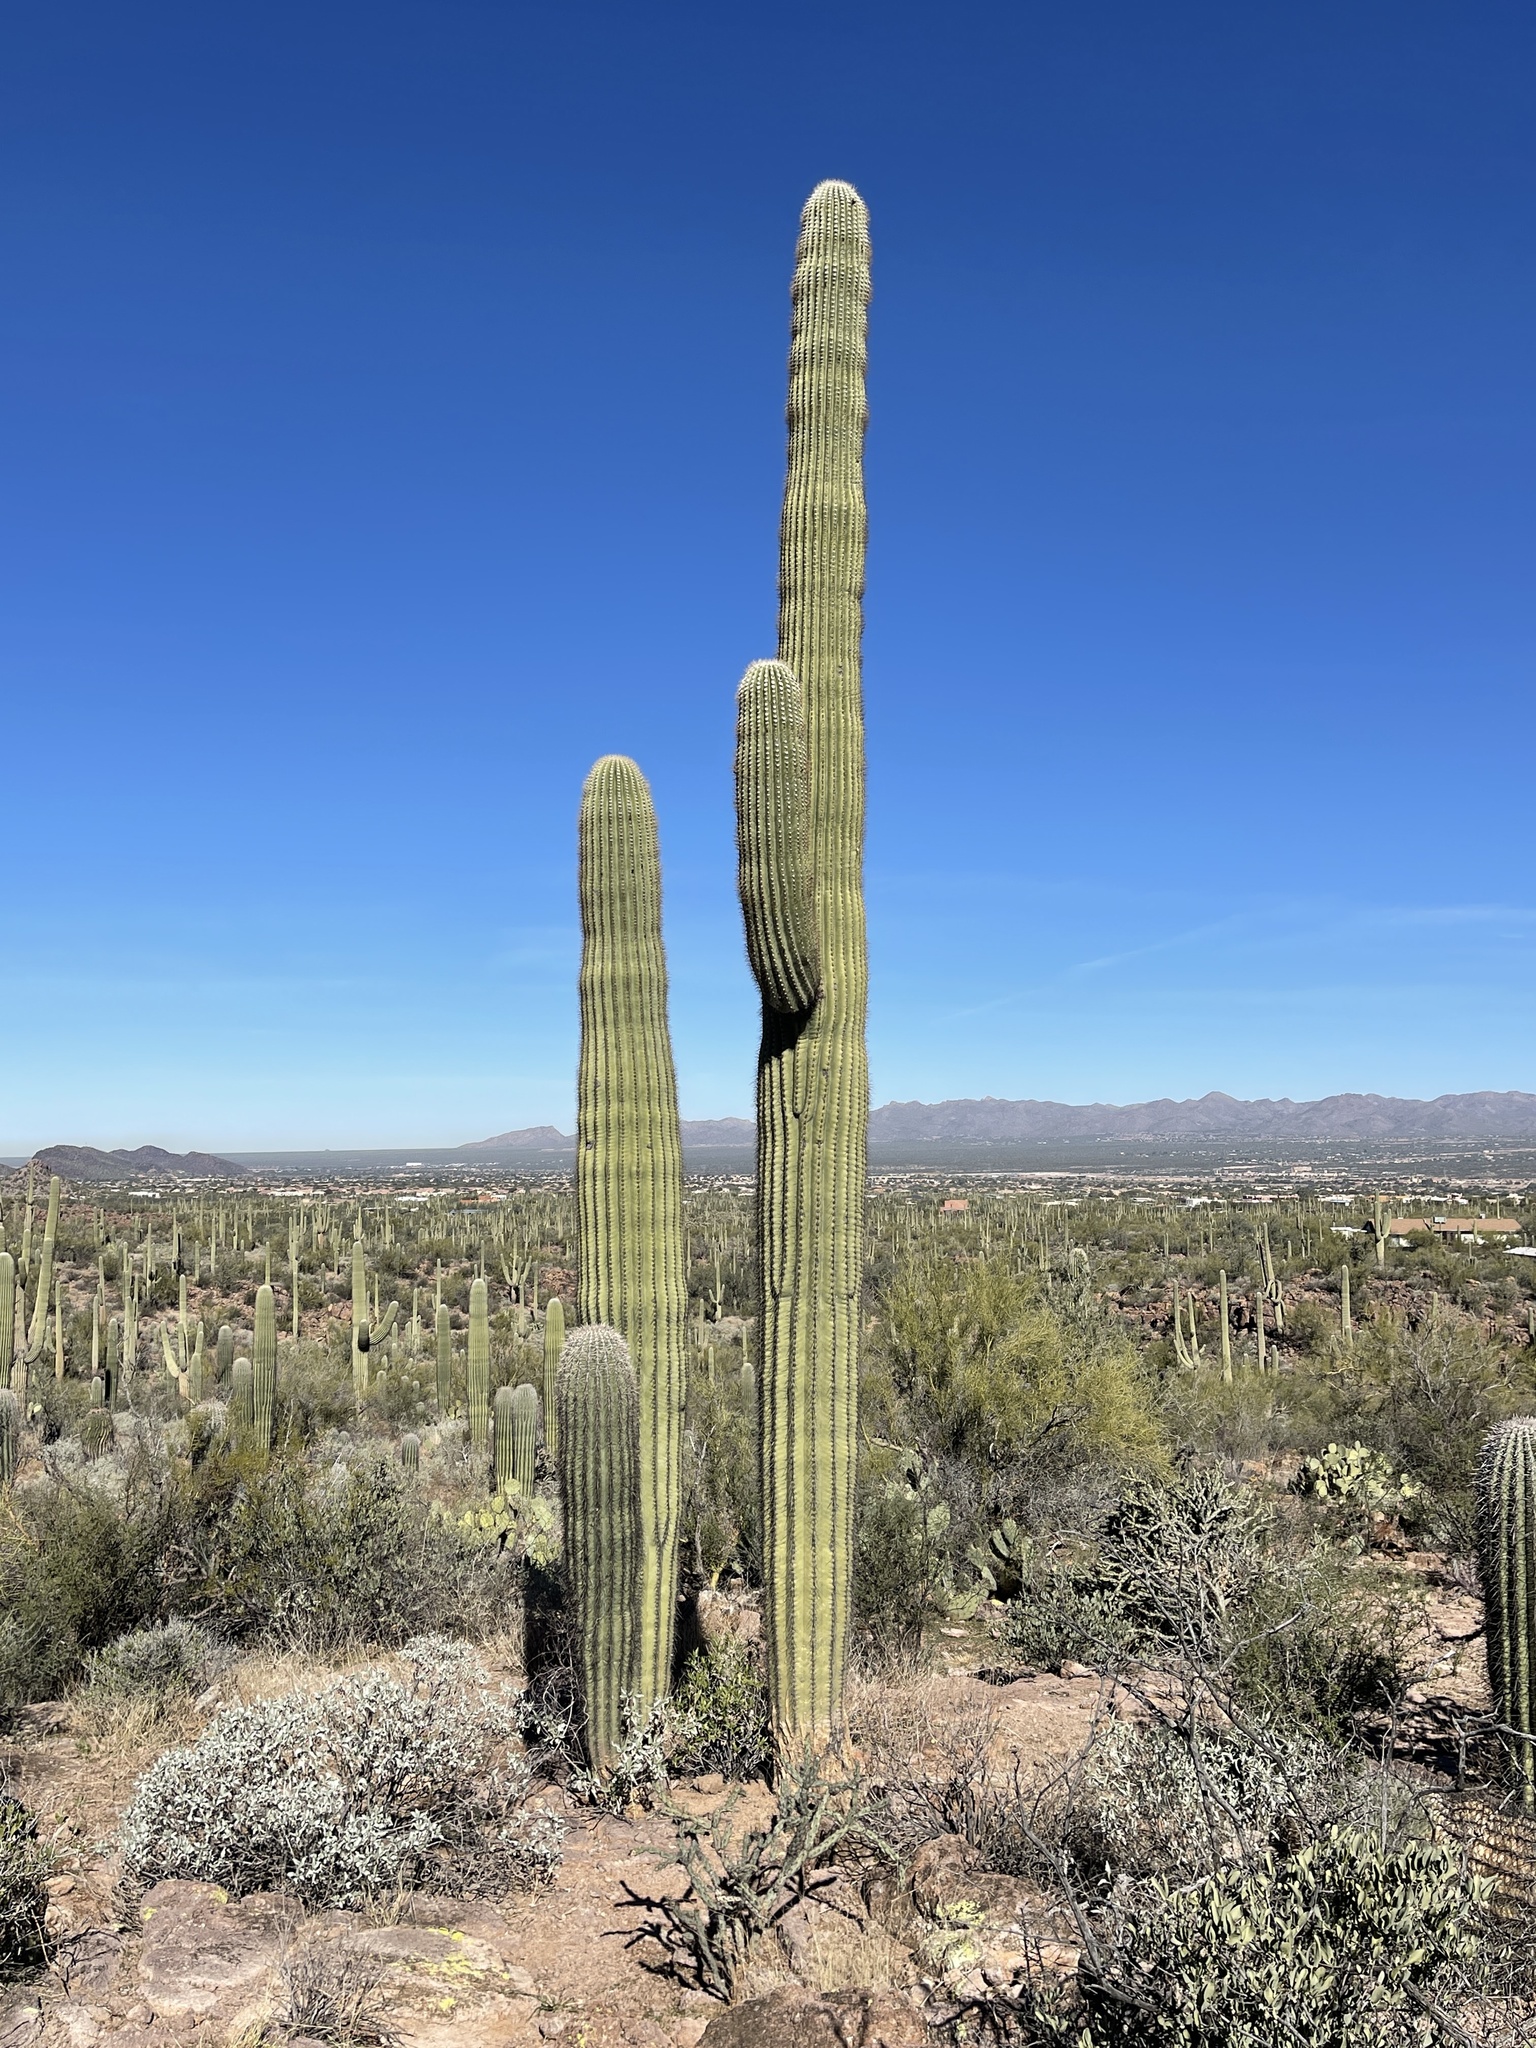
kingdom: Plantae
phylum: Tracheophyta
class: Magnoliopsida
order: Caryophyllales
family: Cactaceae
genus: Carnegiea
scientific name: Carnegiea gigantea
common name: Saguaro
